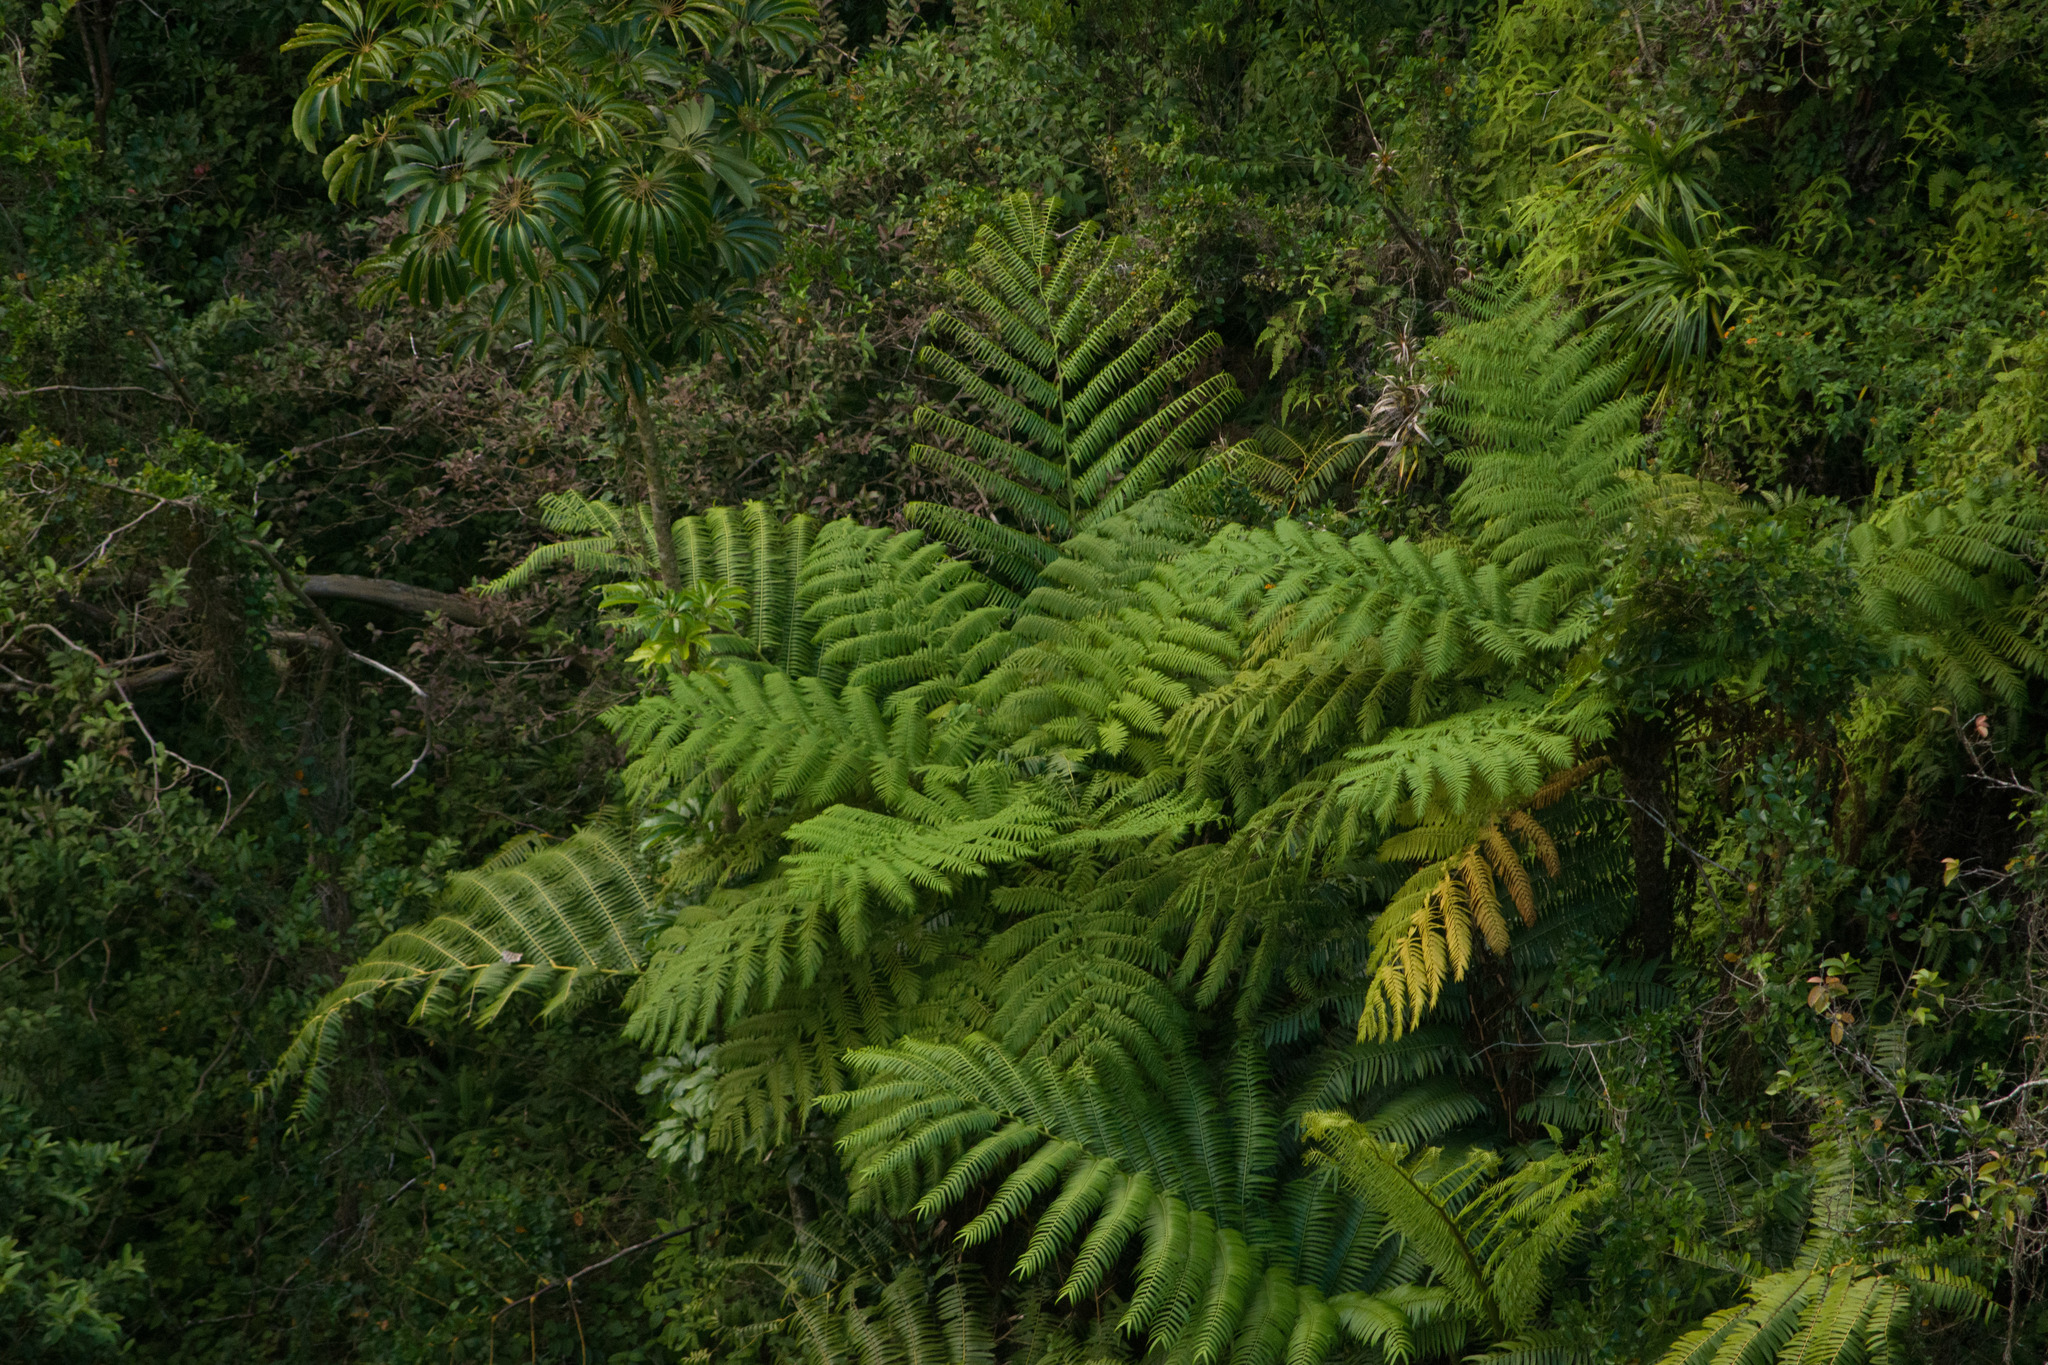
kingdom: Plantae
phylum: Tracheophyta
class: Polypodiopsida
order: Marattiales
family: Marattiaceae
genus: Angiopteris
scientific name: Angiopteris evecta
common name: Mule's-foot fern
